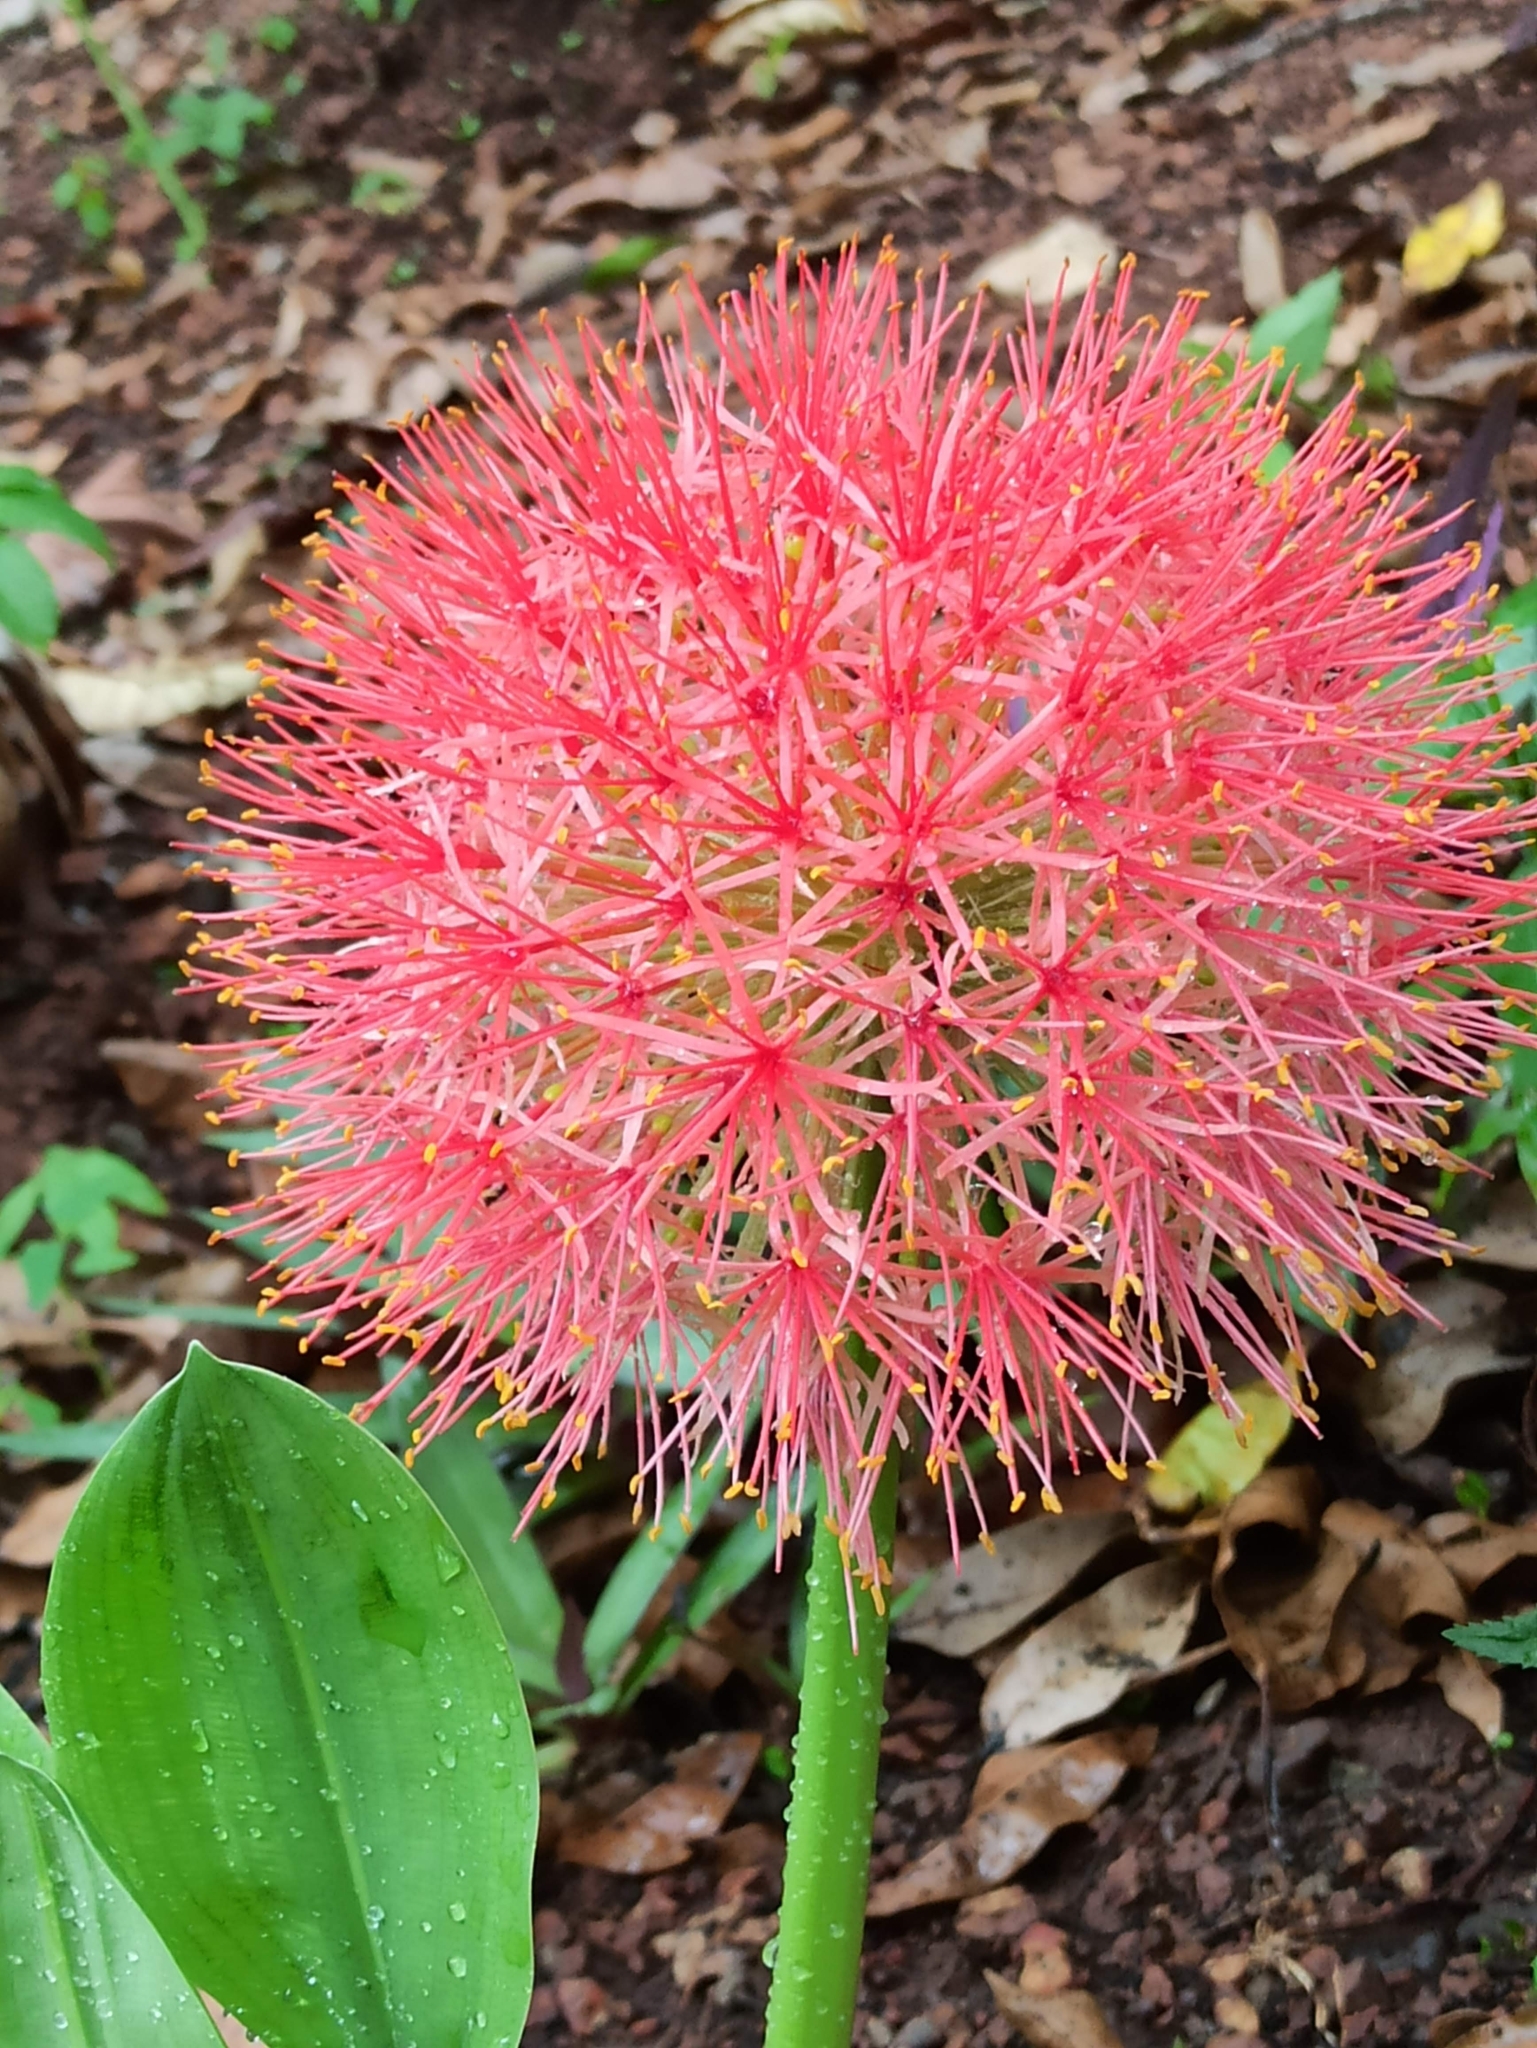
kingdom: Plantae
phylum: Tracheophyta
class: Liliopsida
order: Asparagales
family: Amaryllidaceae
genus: Scadoxus
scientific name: Scadoxus multiflorus
